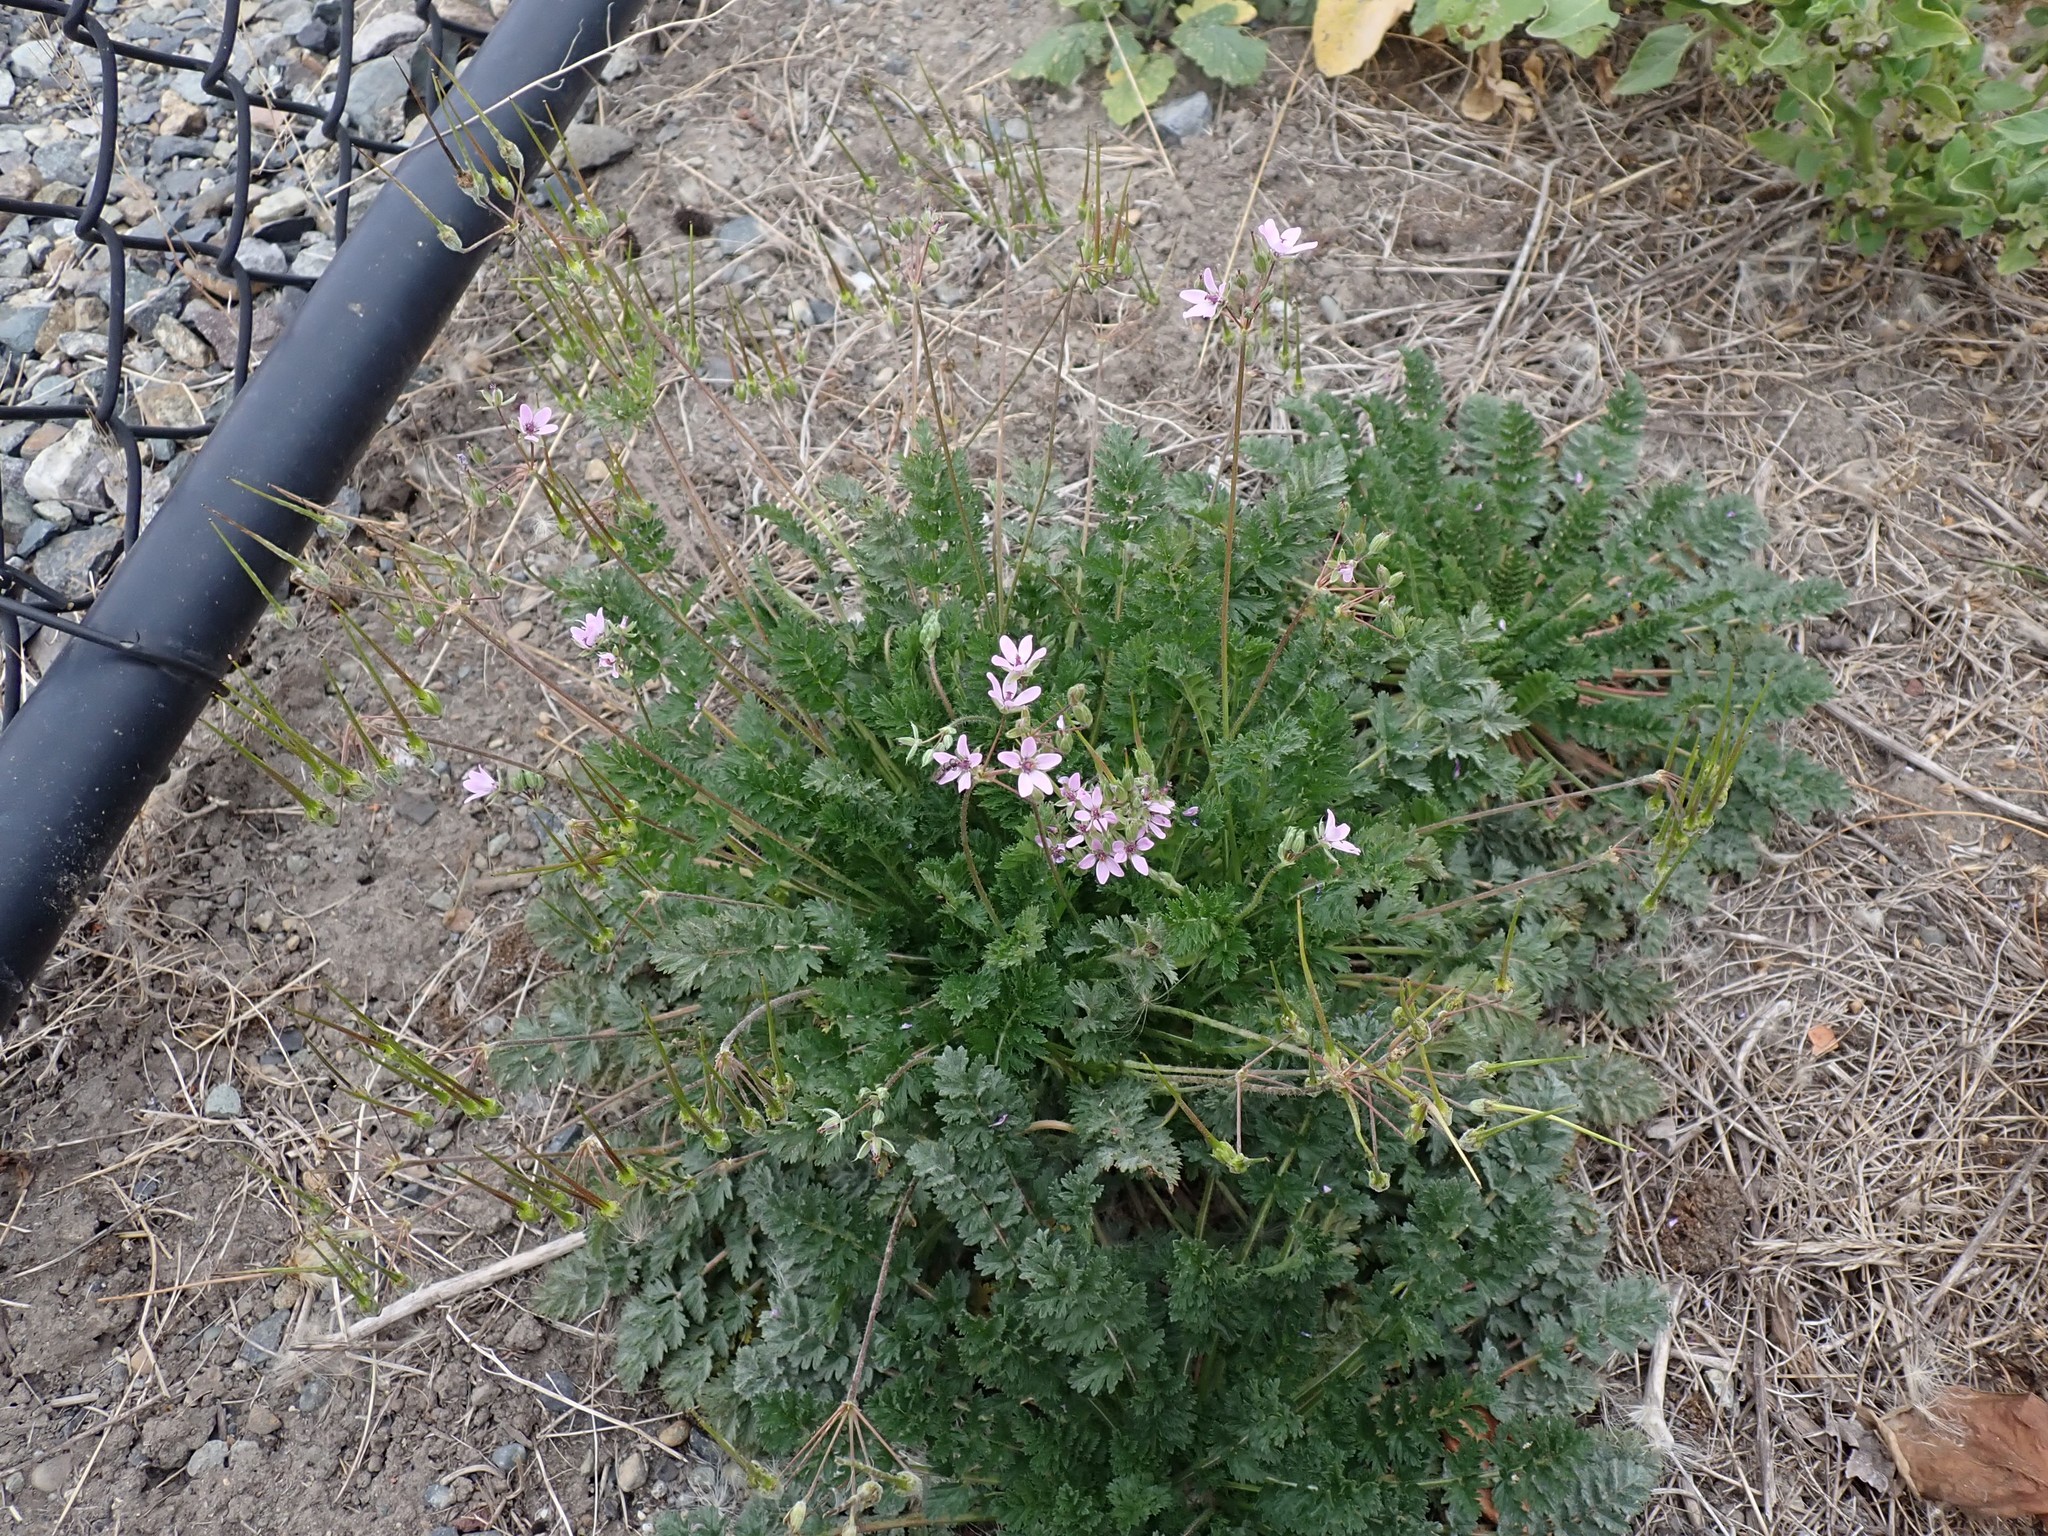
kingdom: Plantae
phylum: Tracheophyta
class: Magnoliopsida
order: Geraniales
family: Geraniaceae
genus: Erodium
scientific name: Erodium cicutarium
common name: Common stork's-bill
